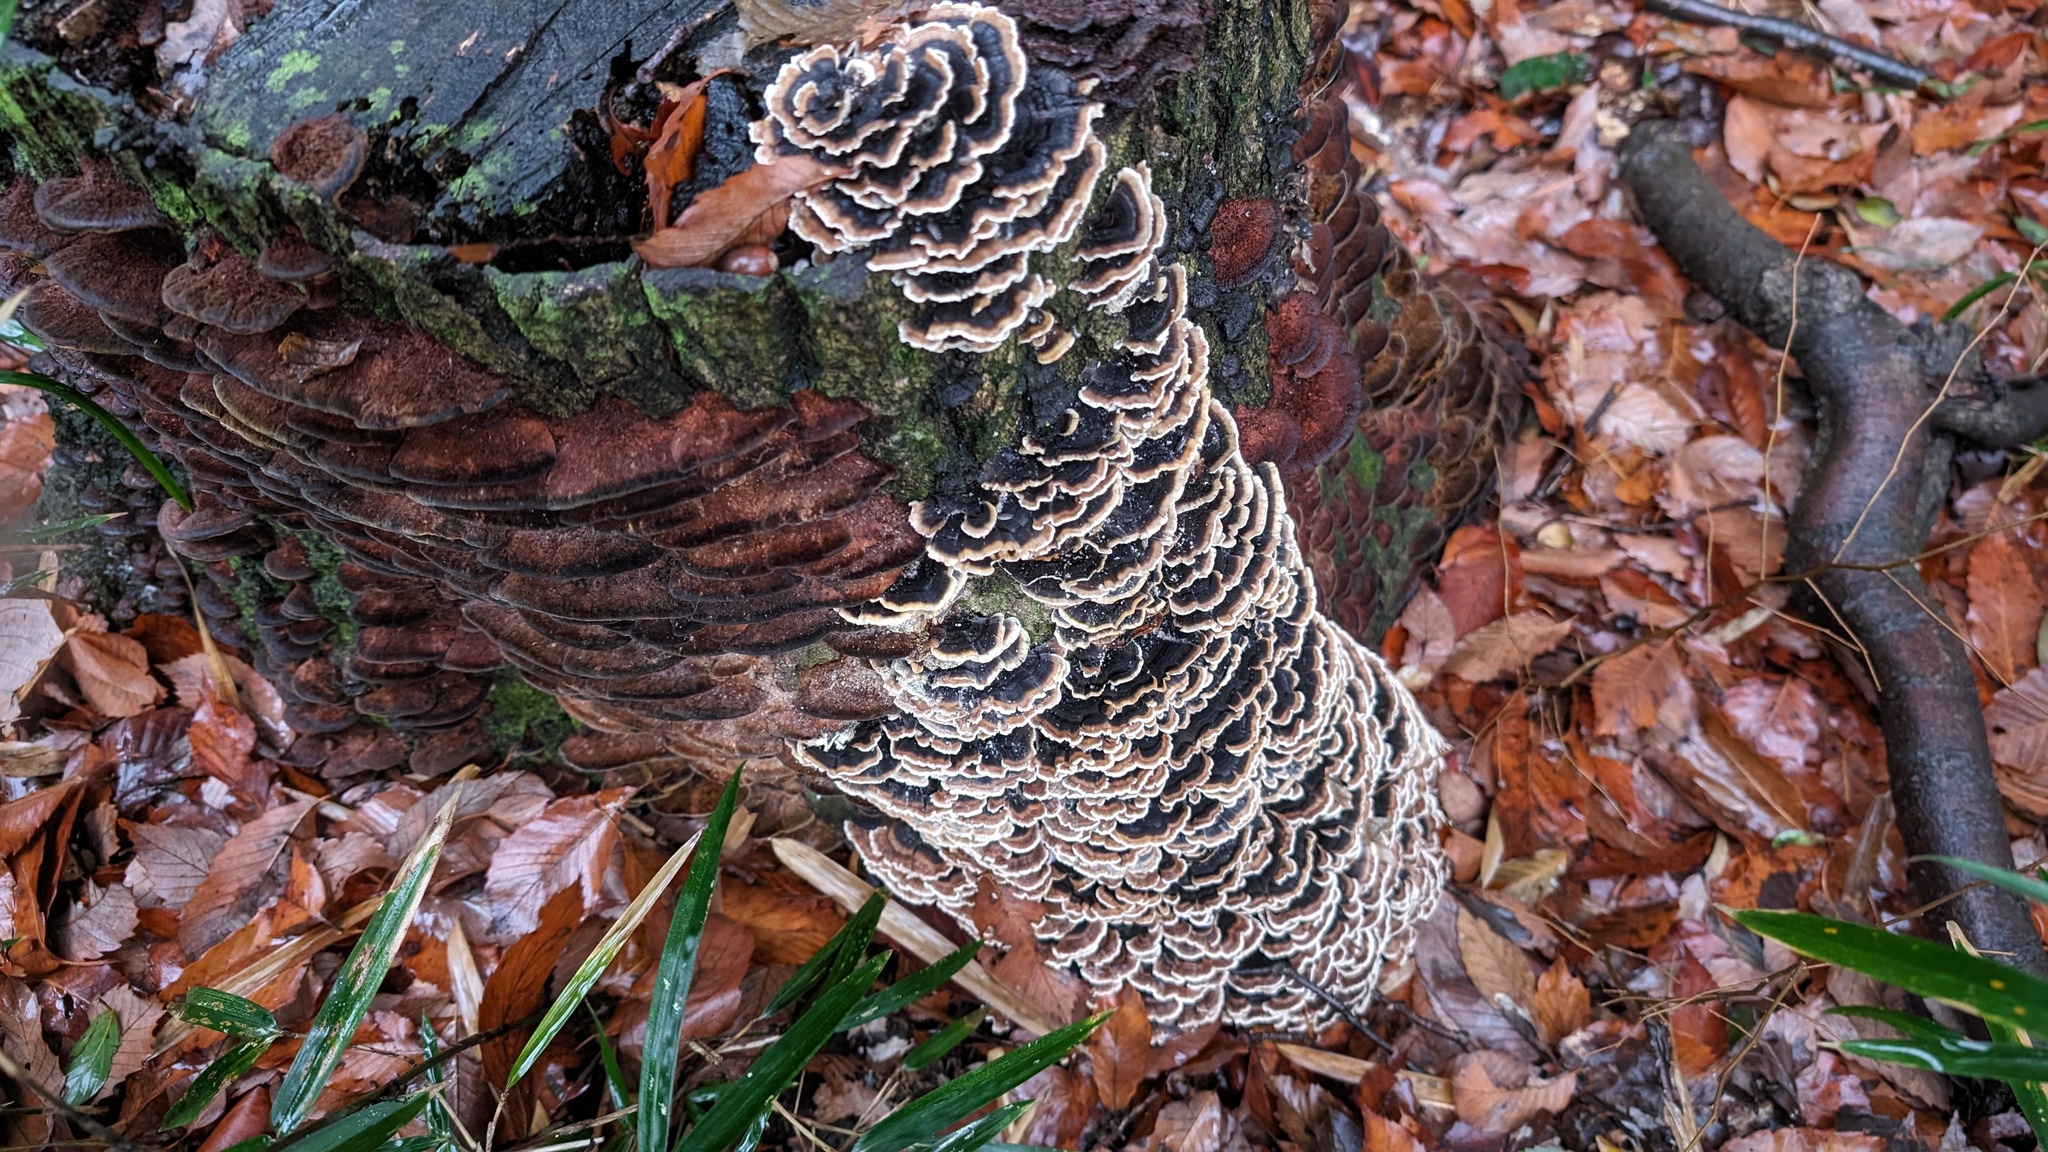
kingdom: Fungi
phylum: Basidiomycota
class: Agaricomycetes
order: Polyporales
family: Polyporaceae
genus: Trametes
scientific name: Trametes versicolor
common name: Turkeytail
